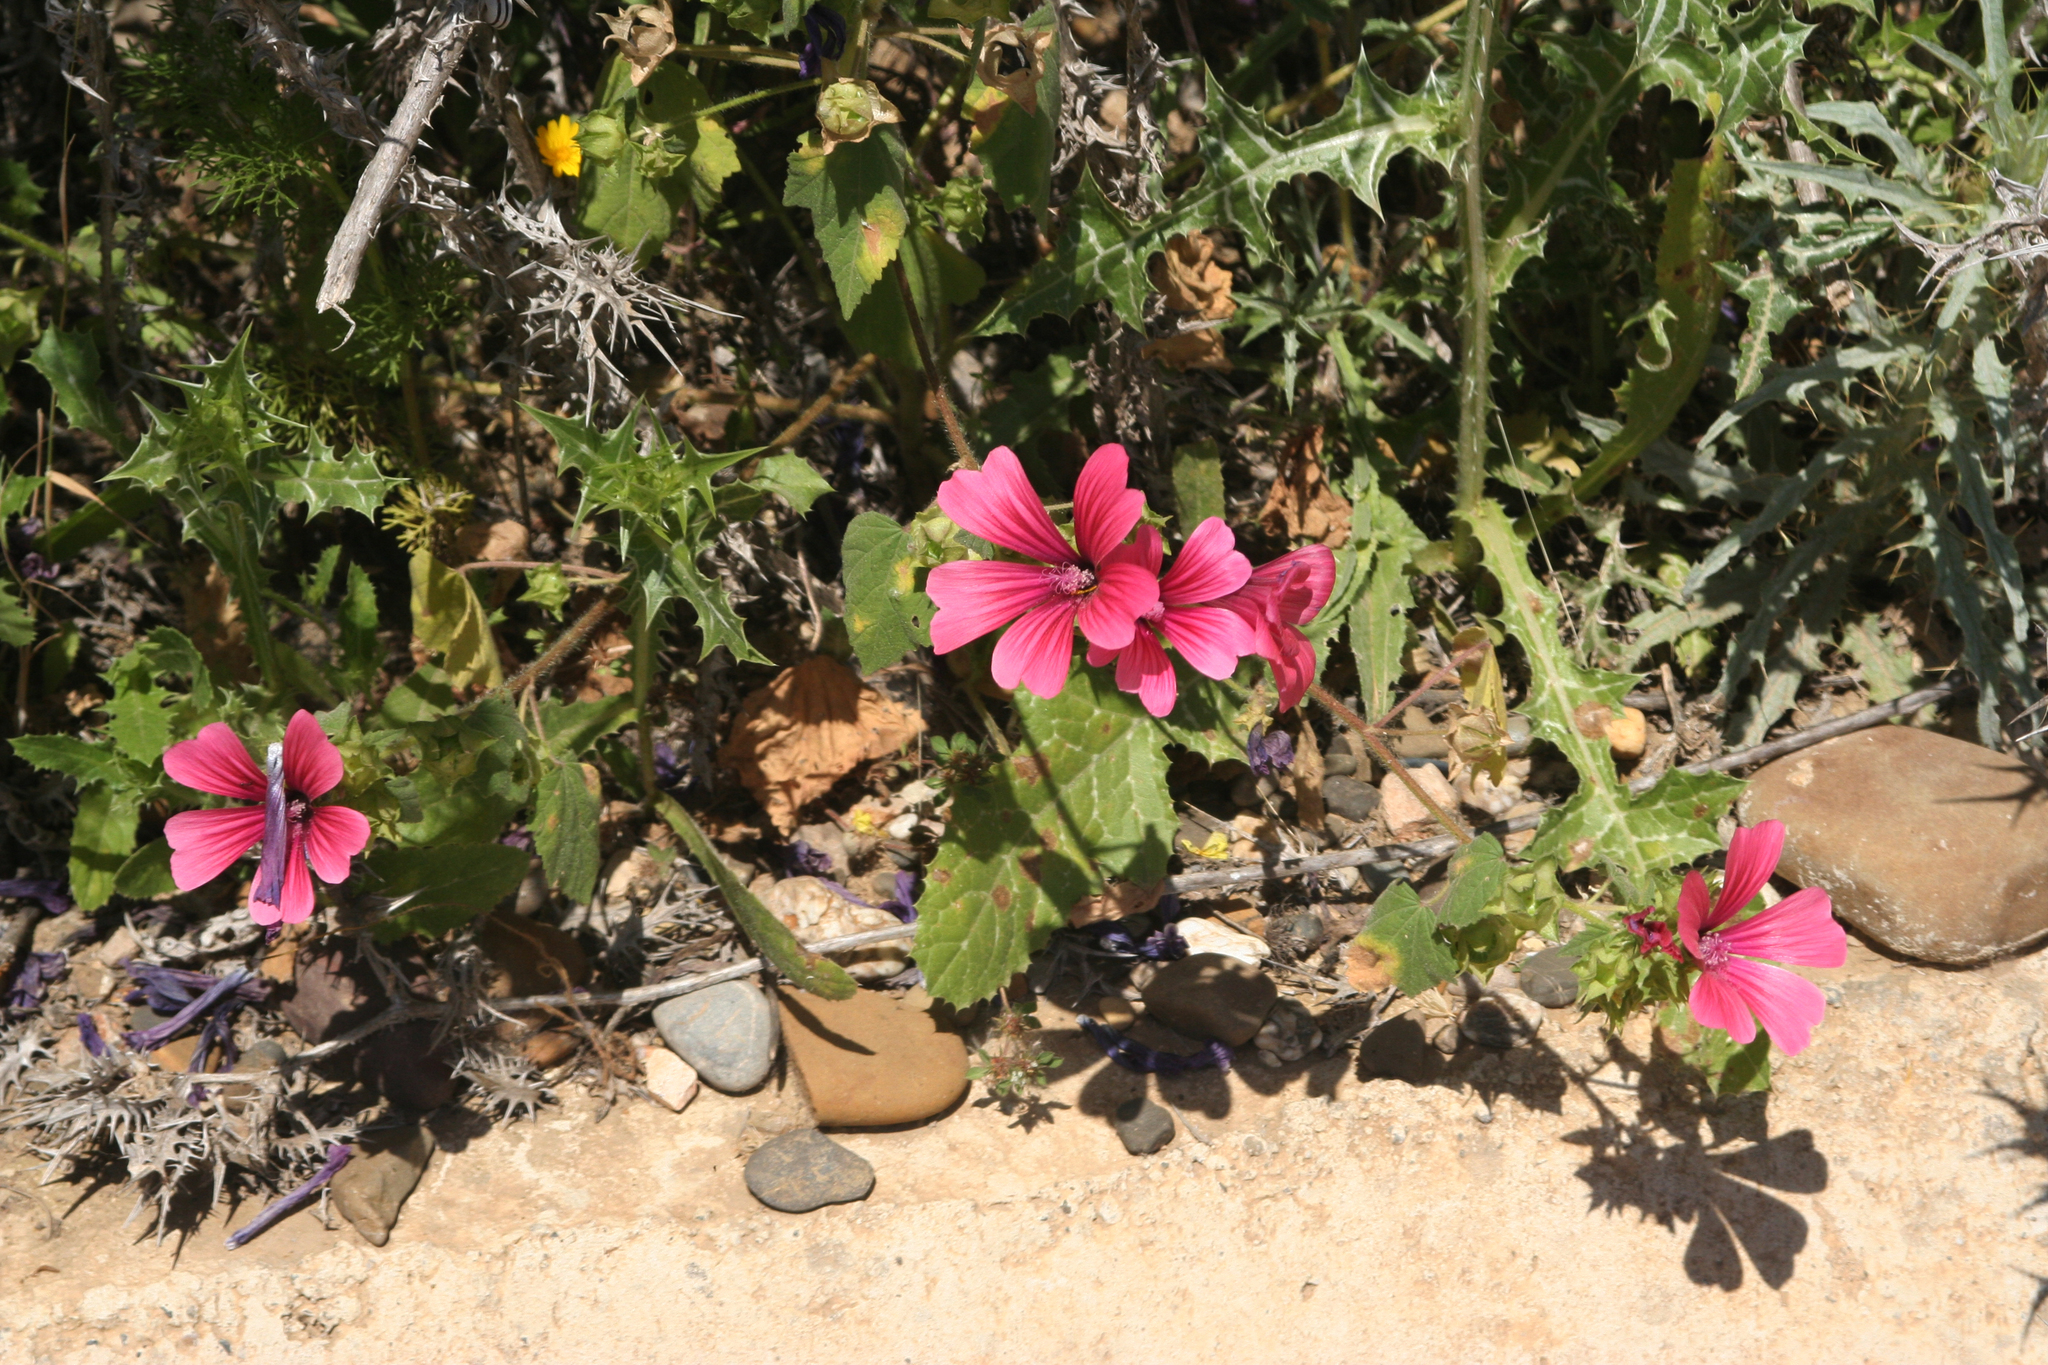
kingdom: Plantae
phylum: Tracheophyta
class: Magnoliopsida
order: Malvales
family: Malvaceae
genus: Malva
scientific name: Malva trimestris
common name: Royal mallow
